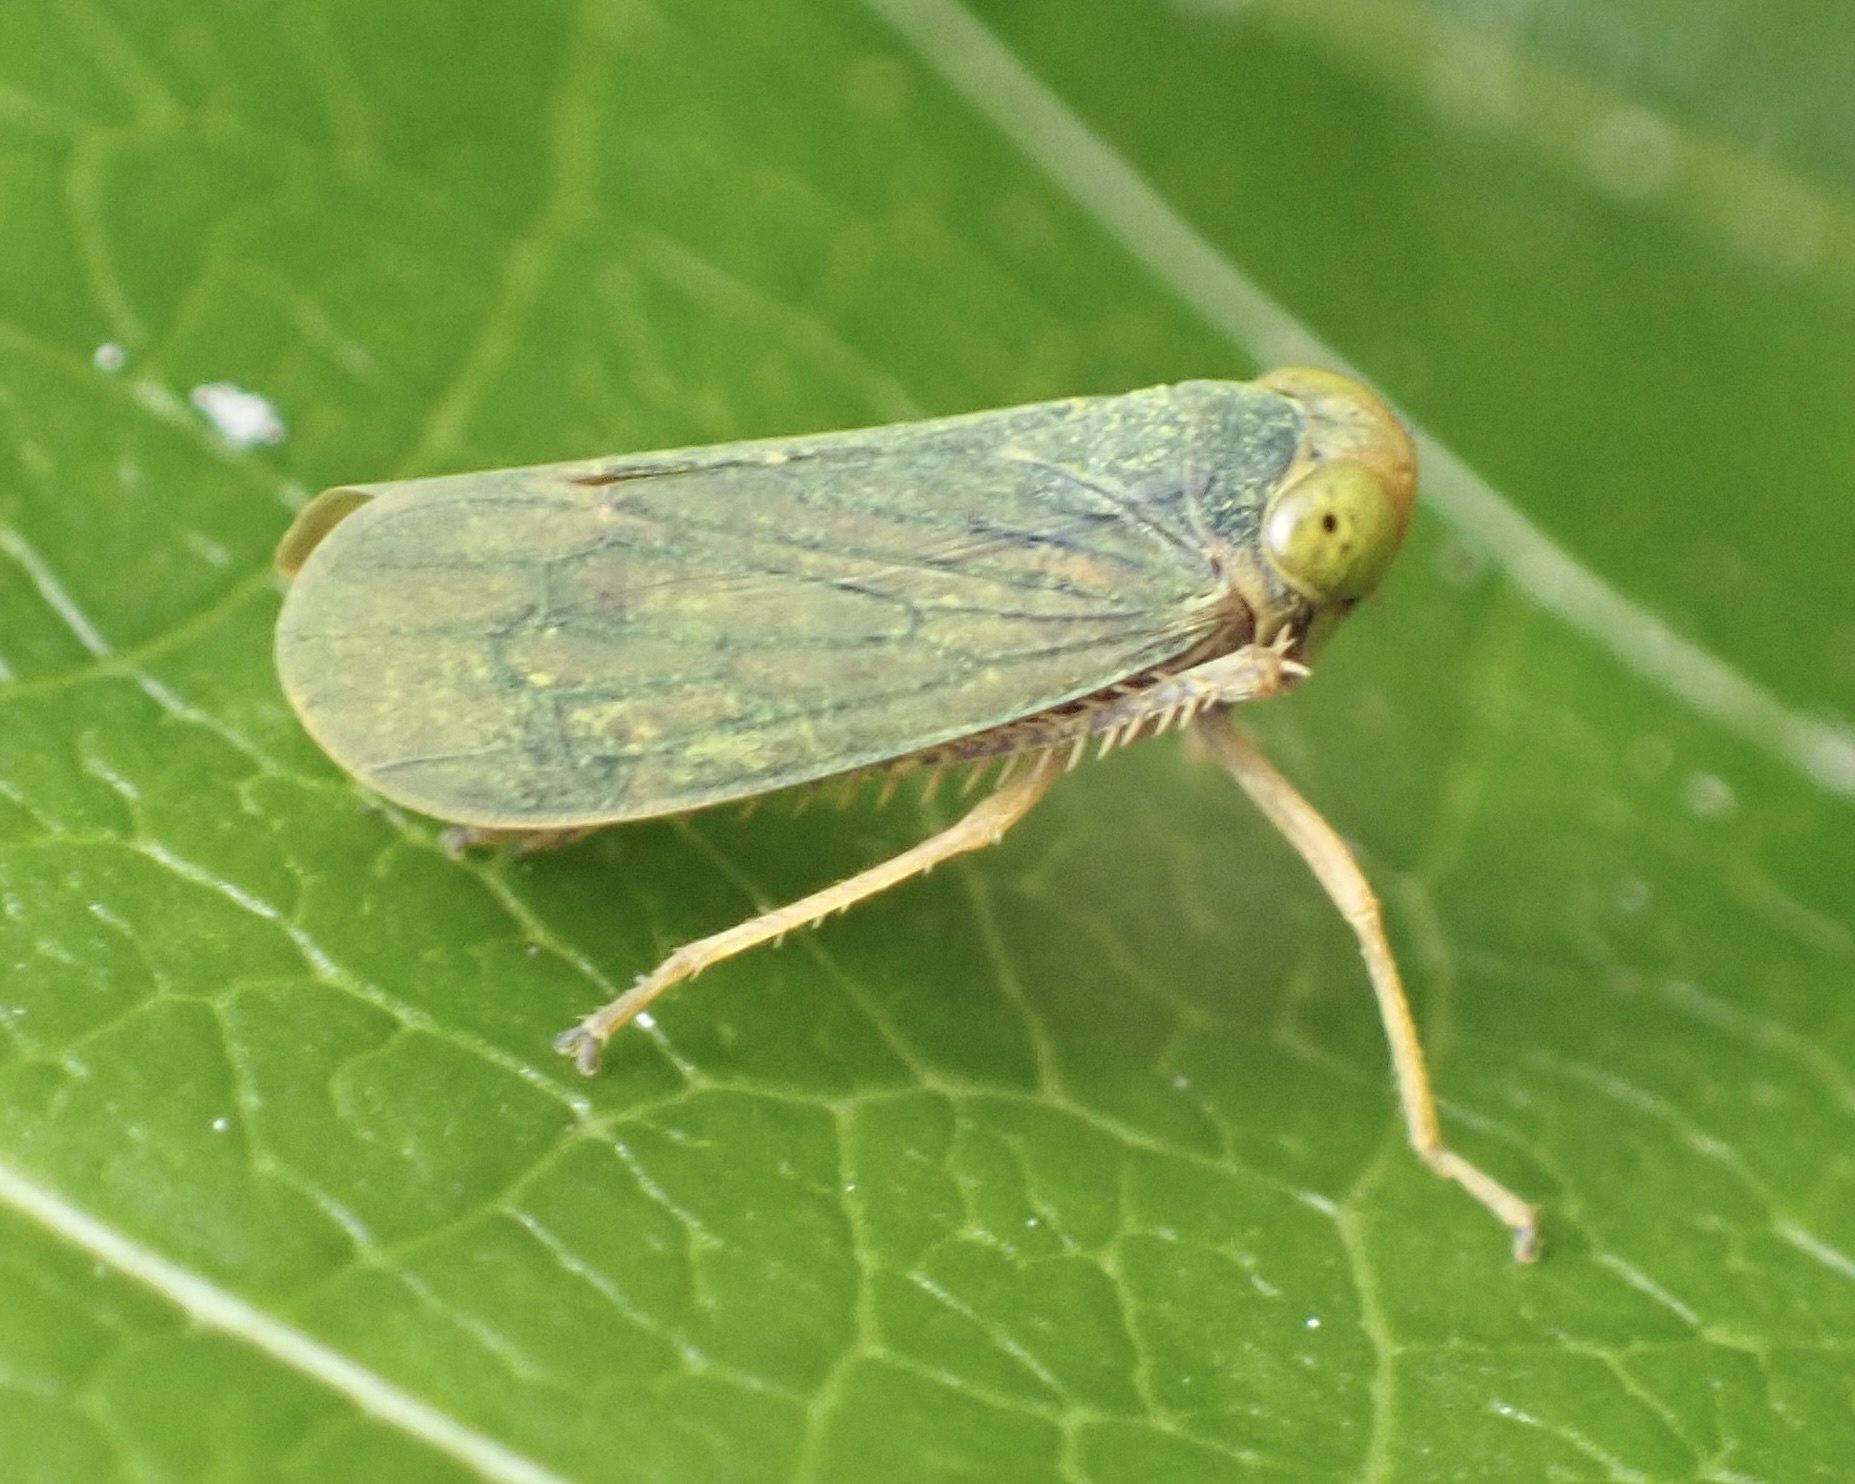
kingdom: Animalia
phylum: Arthropoda
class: Insecta
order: Hemiptera
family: Cicadellidae
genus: Jikradia
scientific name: Jikradia olitoria
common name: Coppery leafhopper
